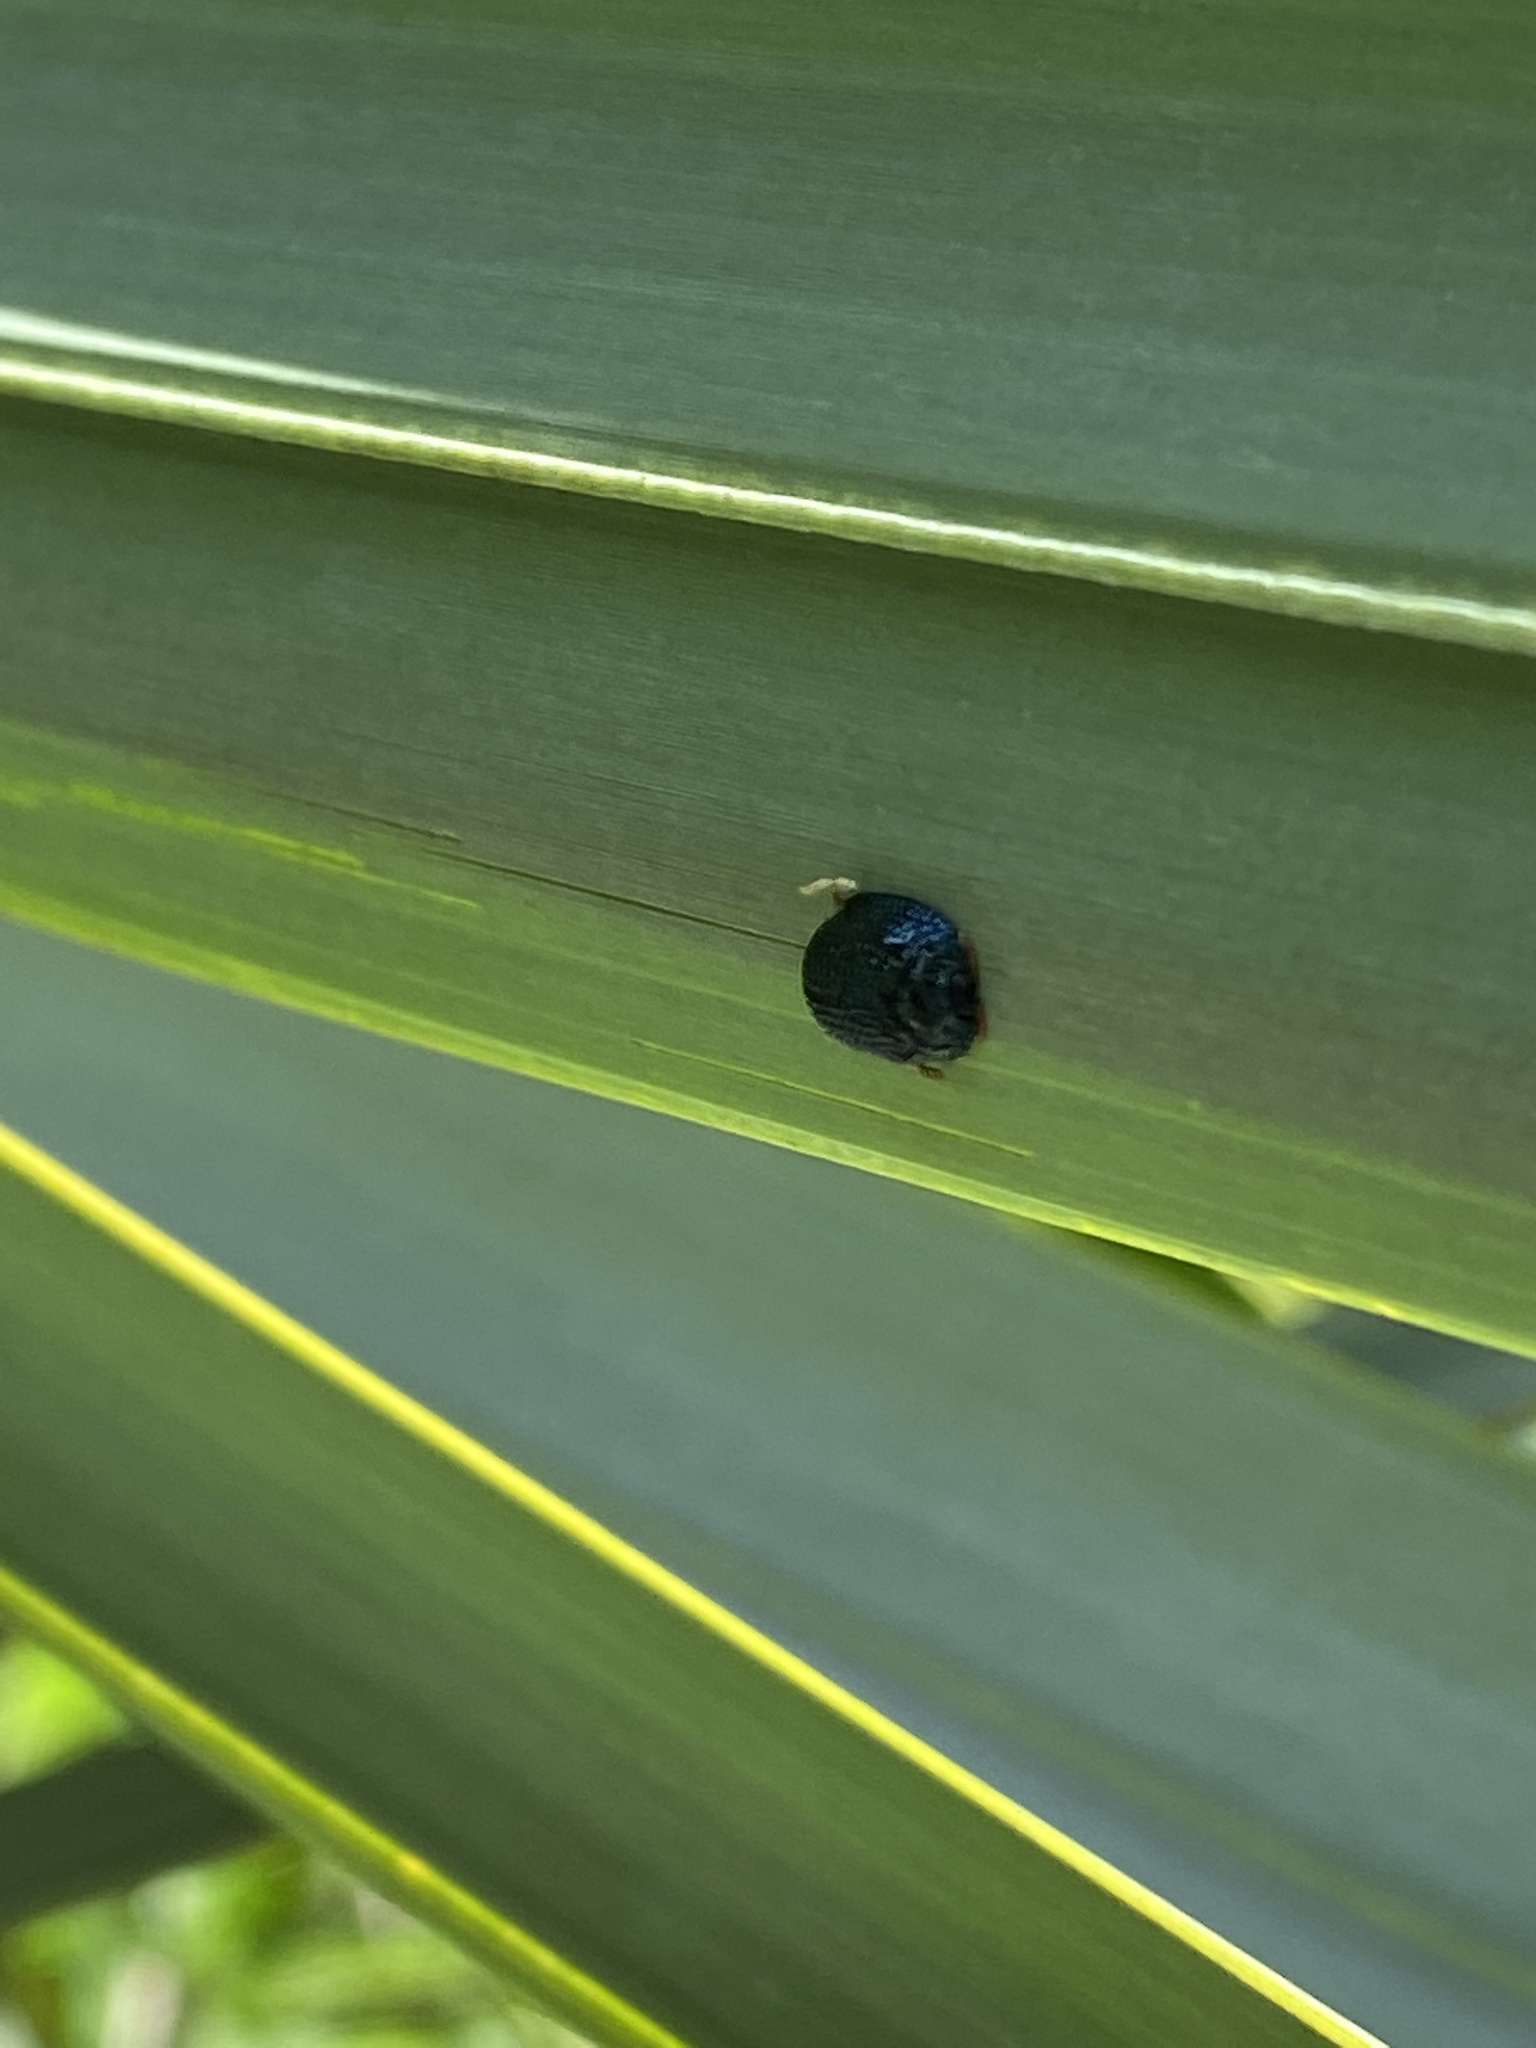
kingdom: Animalia
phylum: Arthropoda
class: Insecta
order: Coleoptera
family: Chrysomelidae
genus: Hemisphaerota
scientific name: Hemisphaerota cyanea
